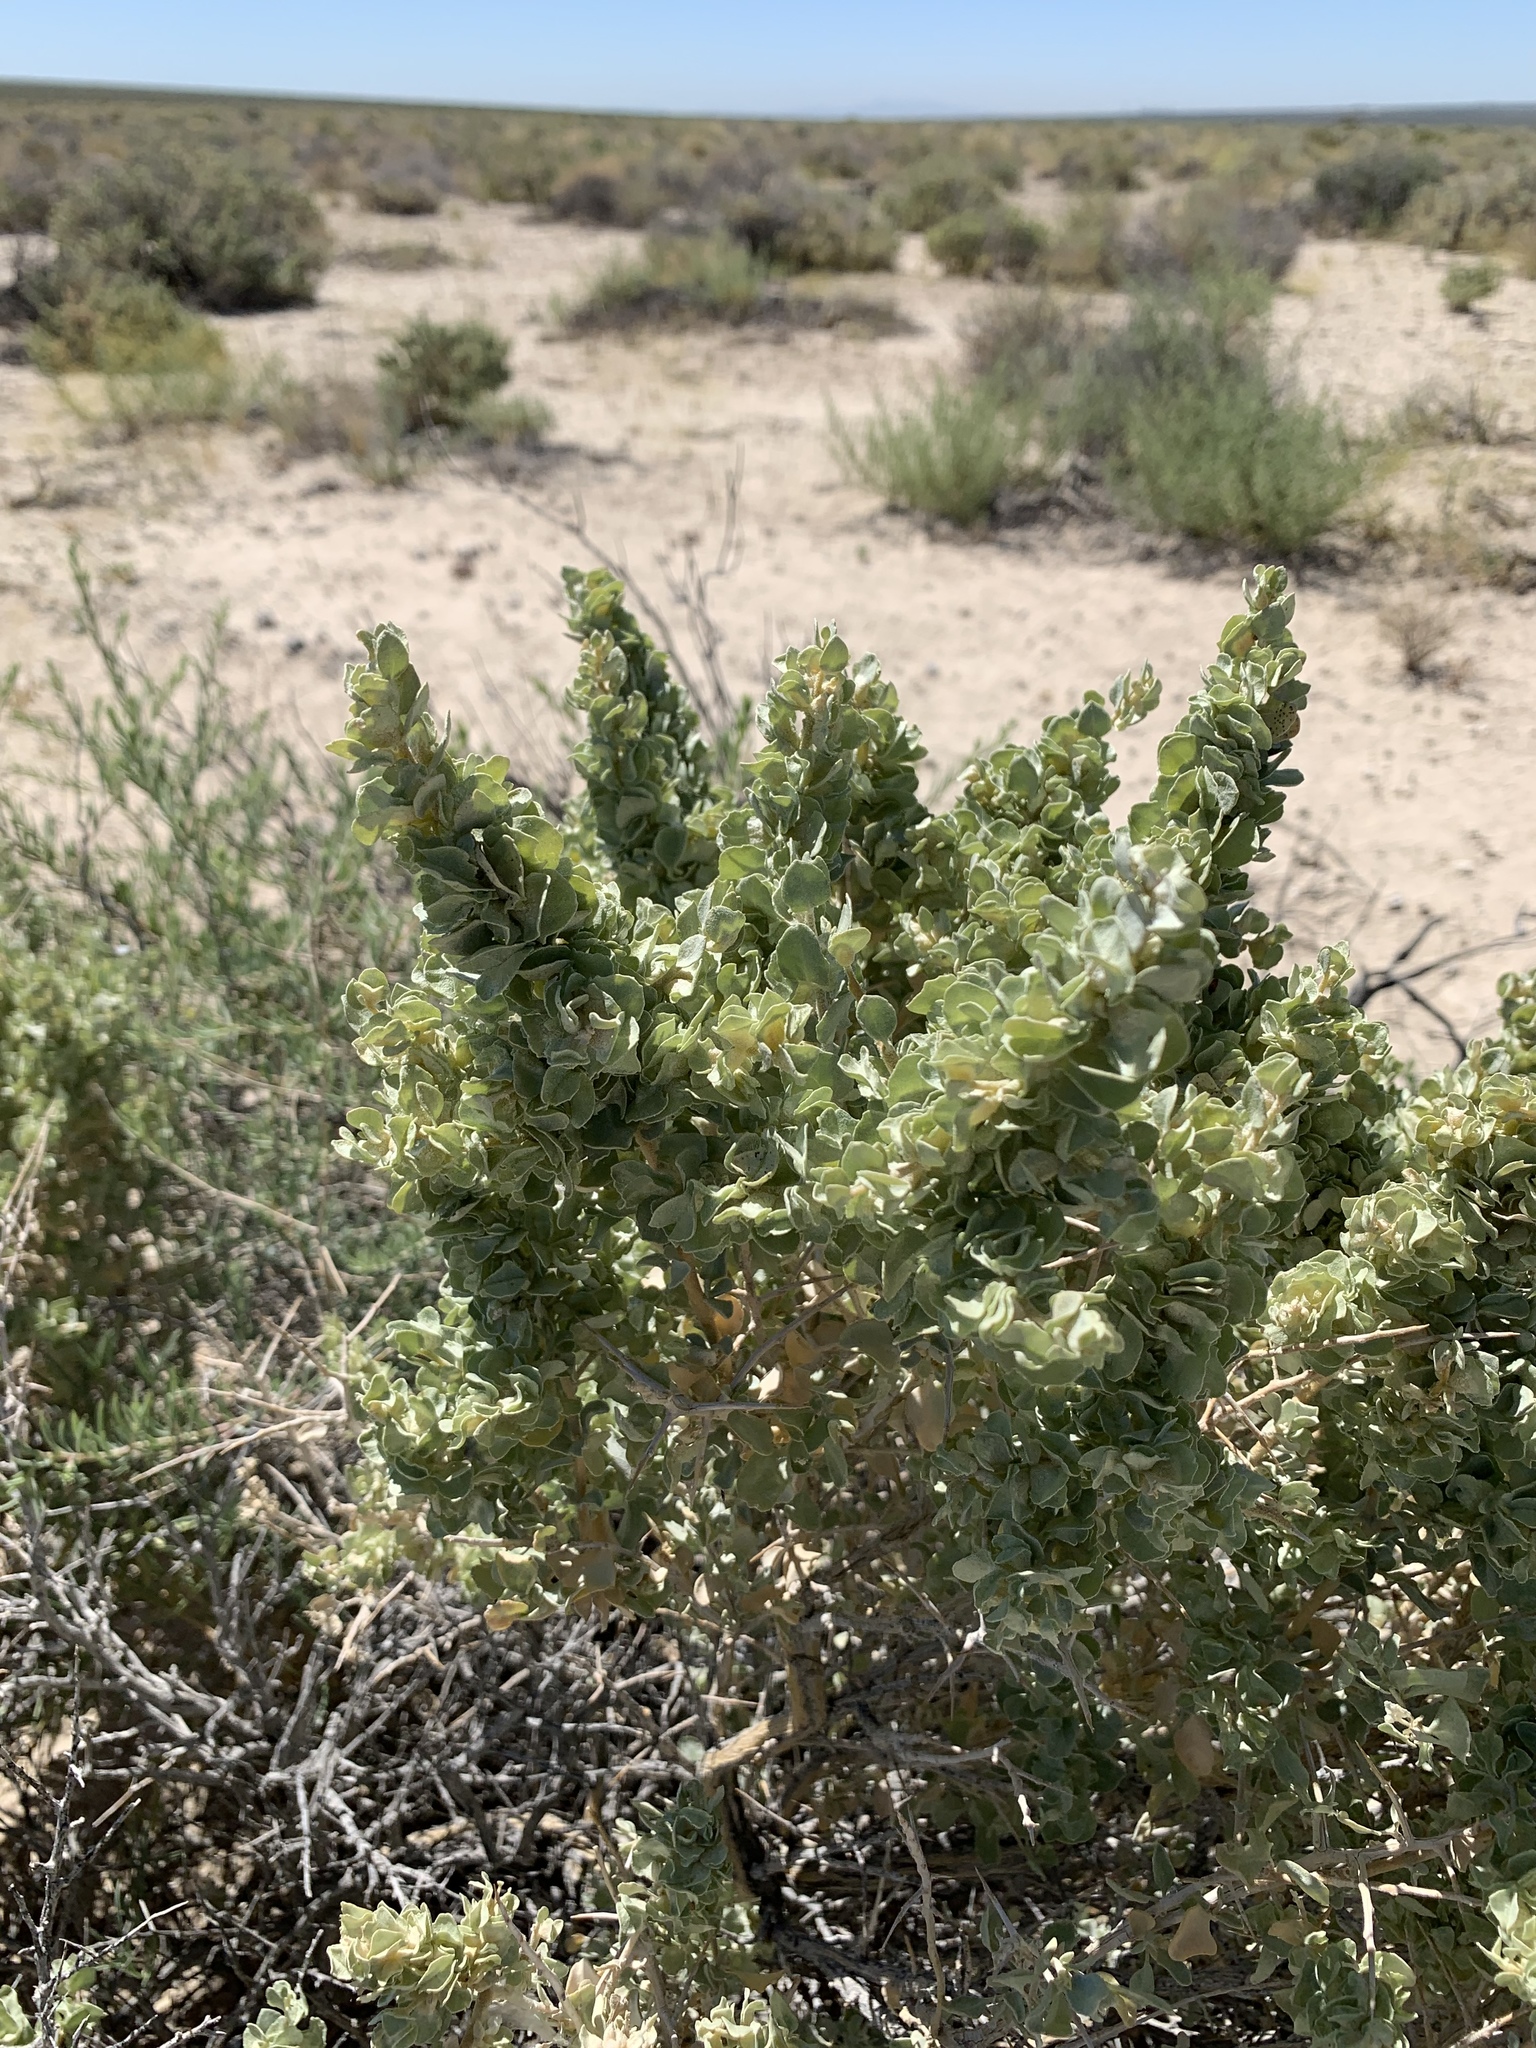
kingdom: Plantae
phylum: Tracheophyta
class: Magnoliopsida
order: Caryophyllales
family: Amaranthaceae
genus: Atriplex
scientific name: Atriplex confertifolia
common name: Shadscale
